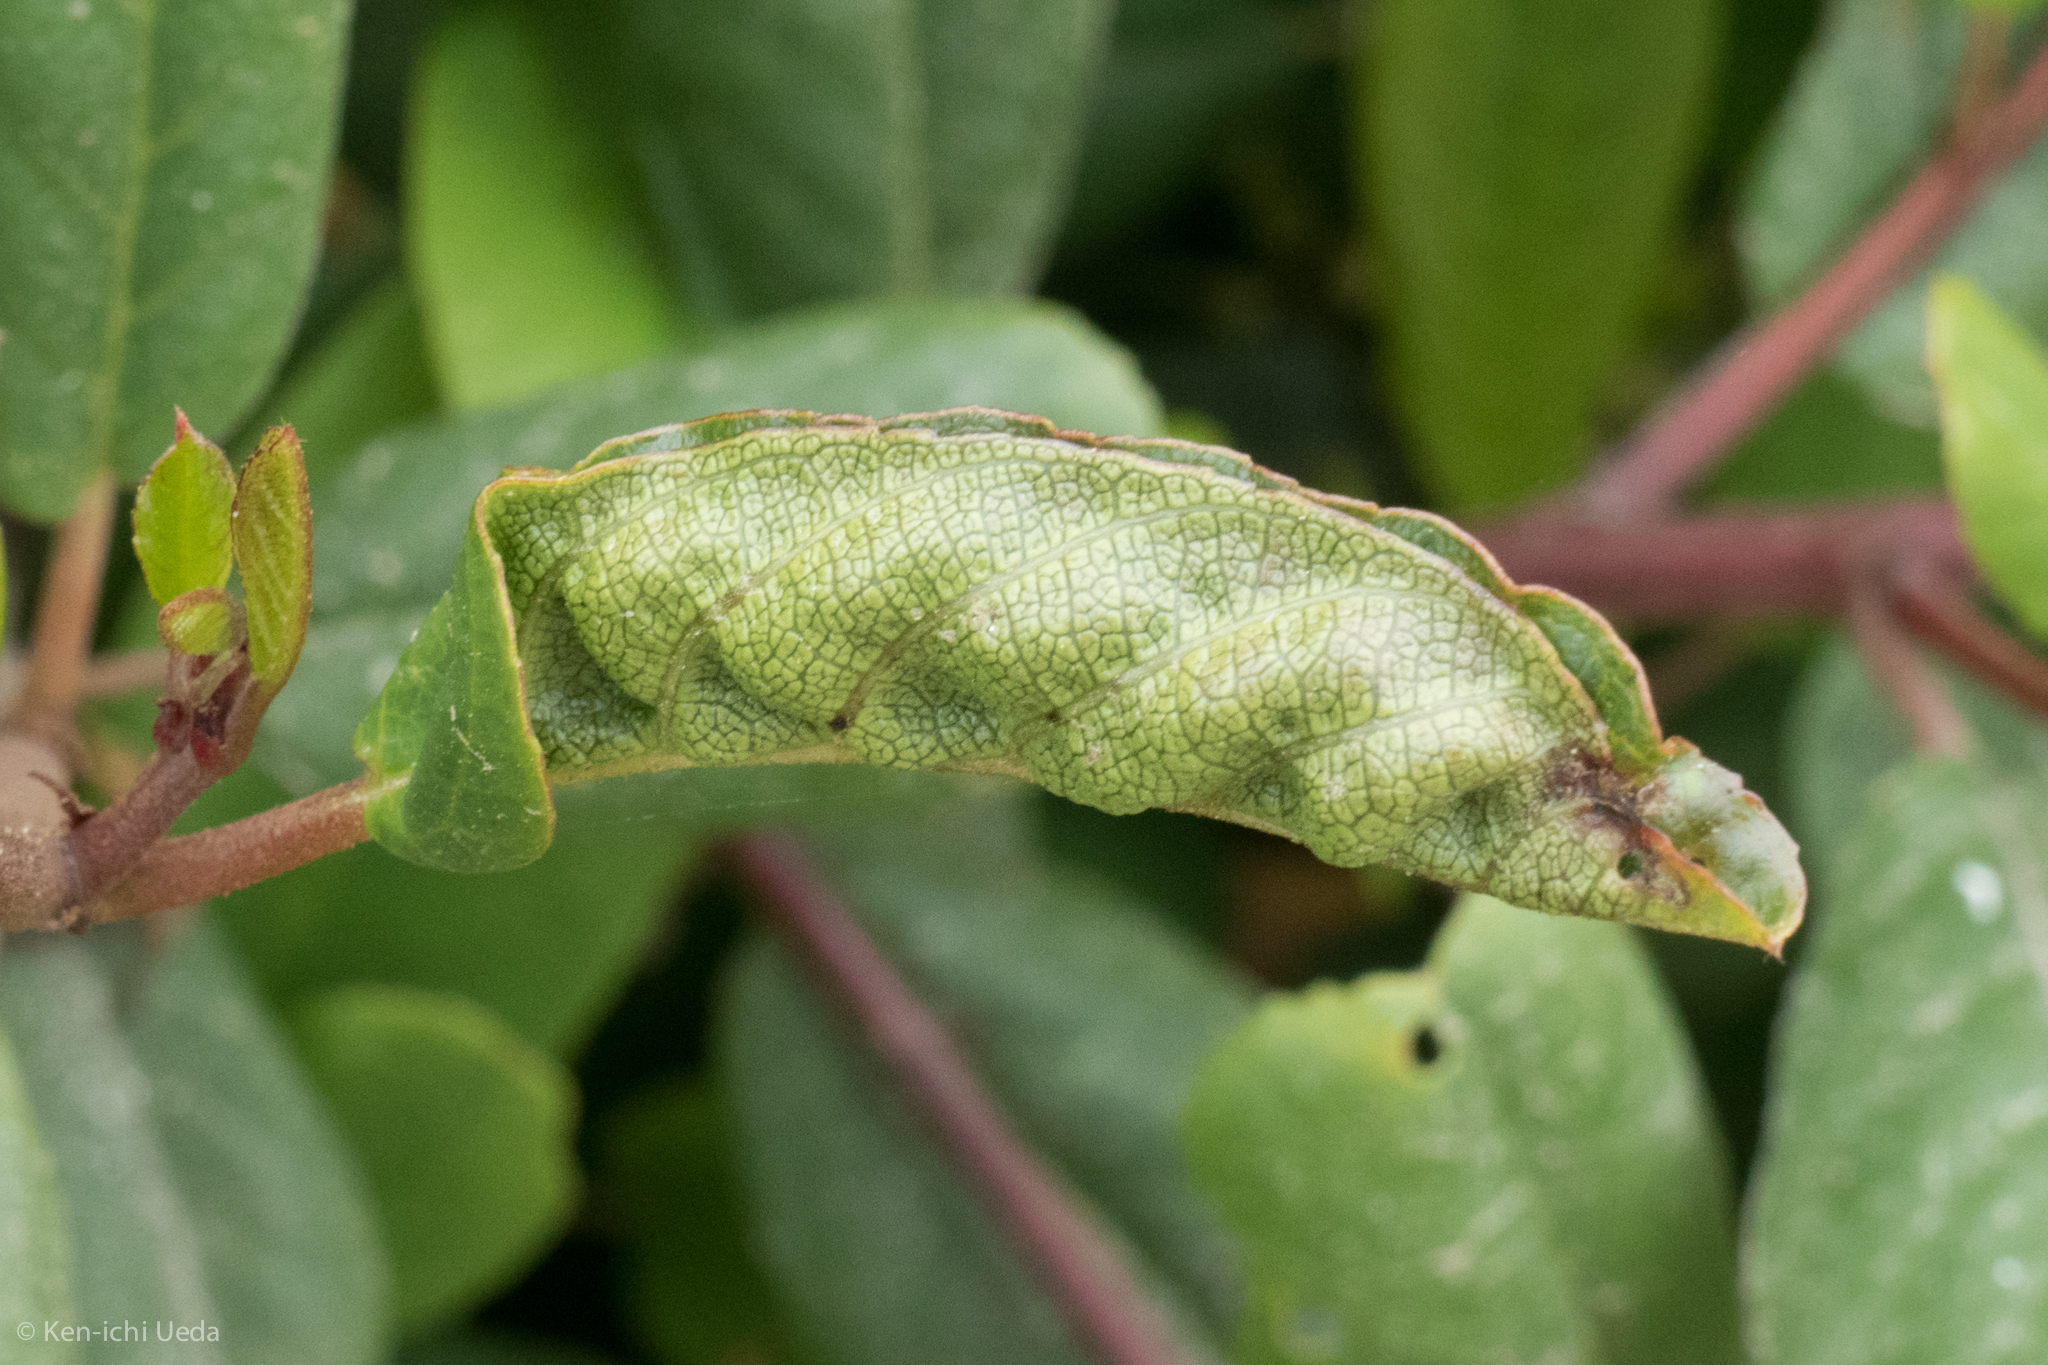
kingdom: Animalia
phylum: Arthropoda
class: Insecta
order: Lepidoptera
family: Cosmopterigidae
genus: Sorhagenia
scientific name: Sorhagenia nimbosus
